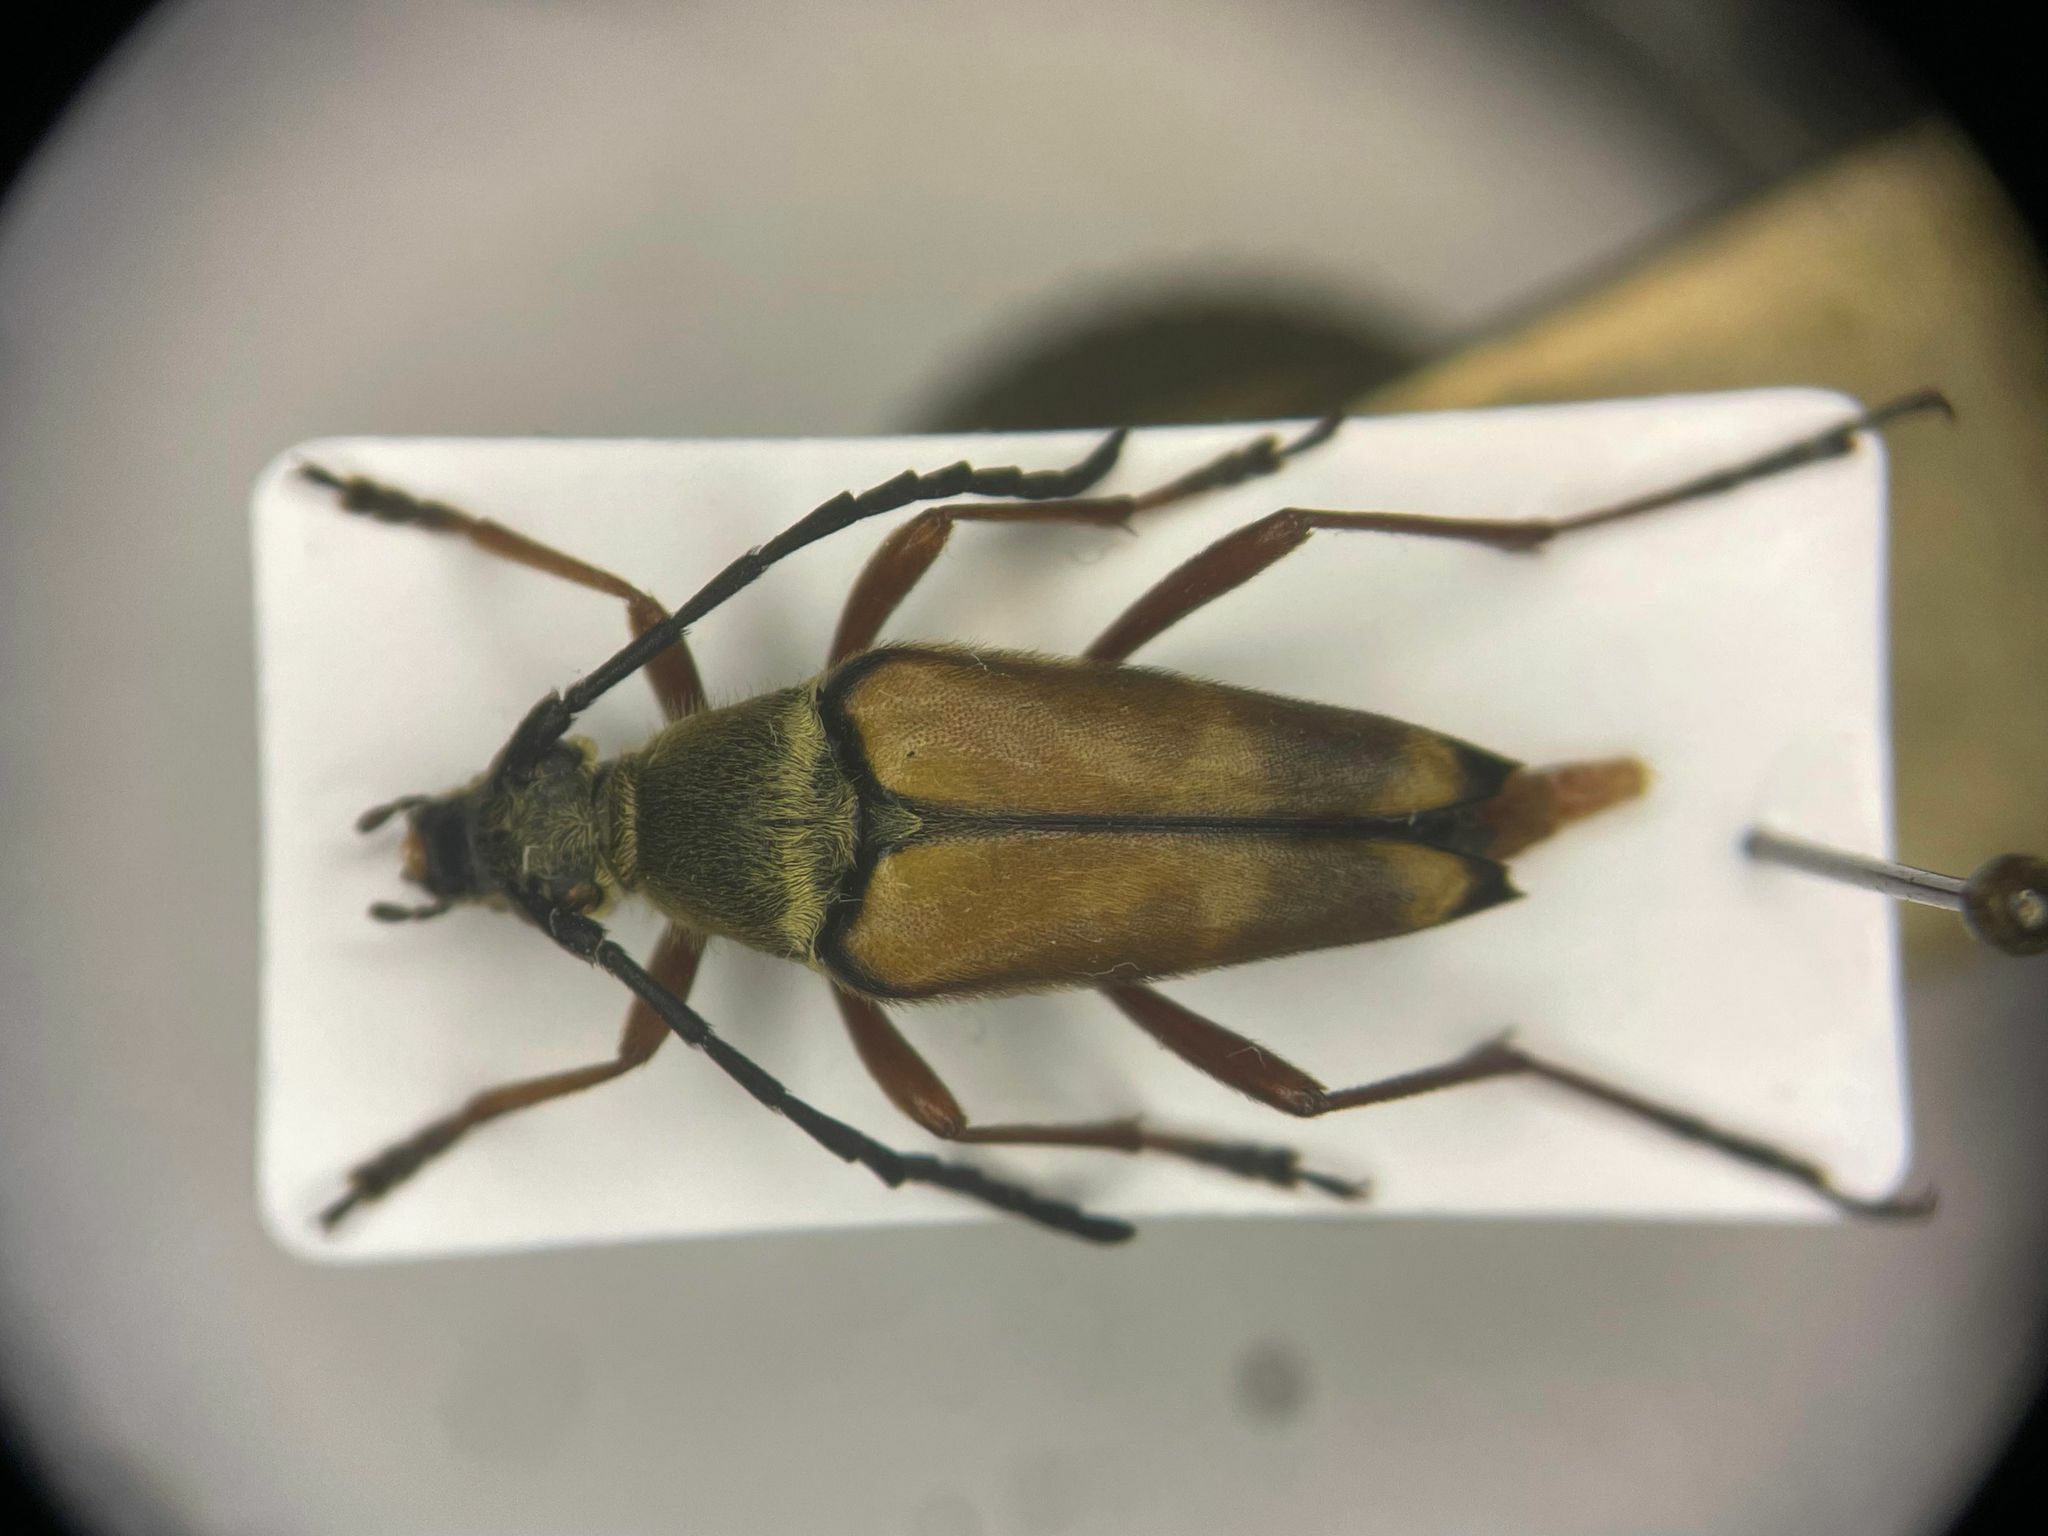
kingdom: Animalia
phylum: Arthropoda
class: Insecta
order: Coleoptera
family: Cerambycidae
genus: Typocerus
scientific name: Typocerus acuticauda
